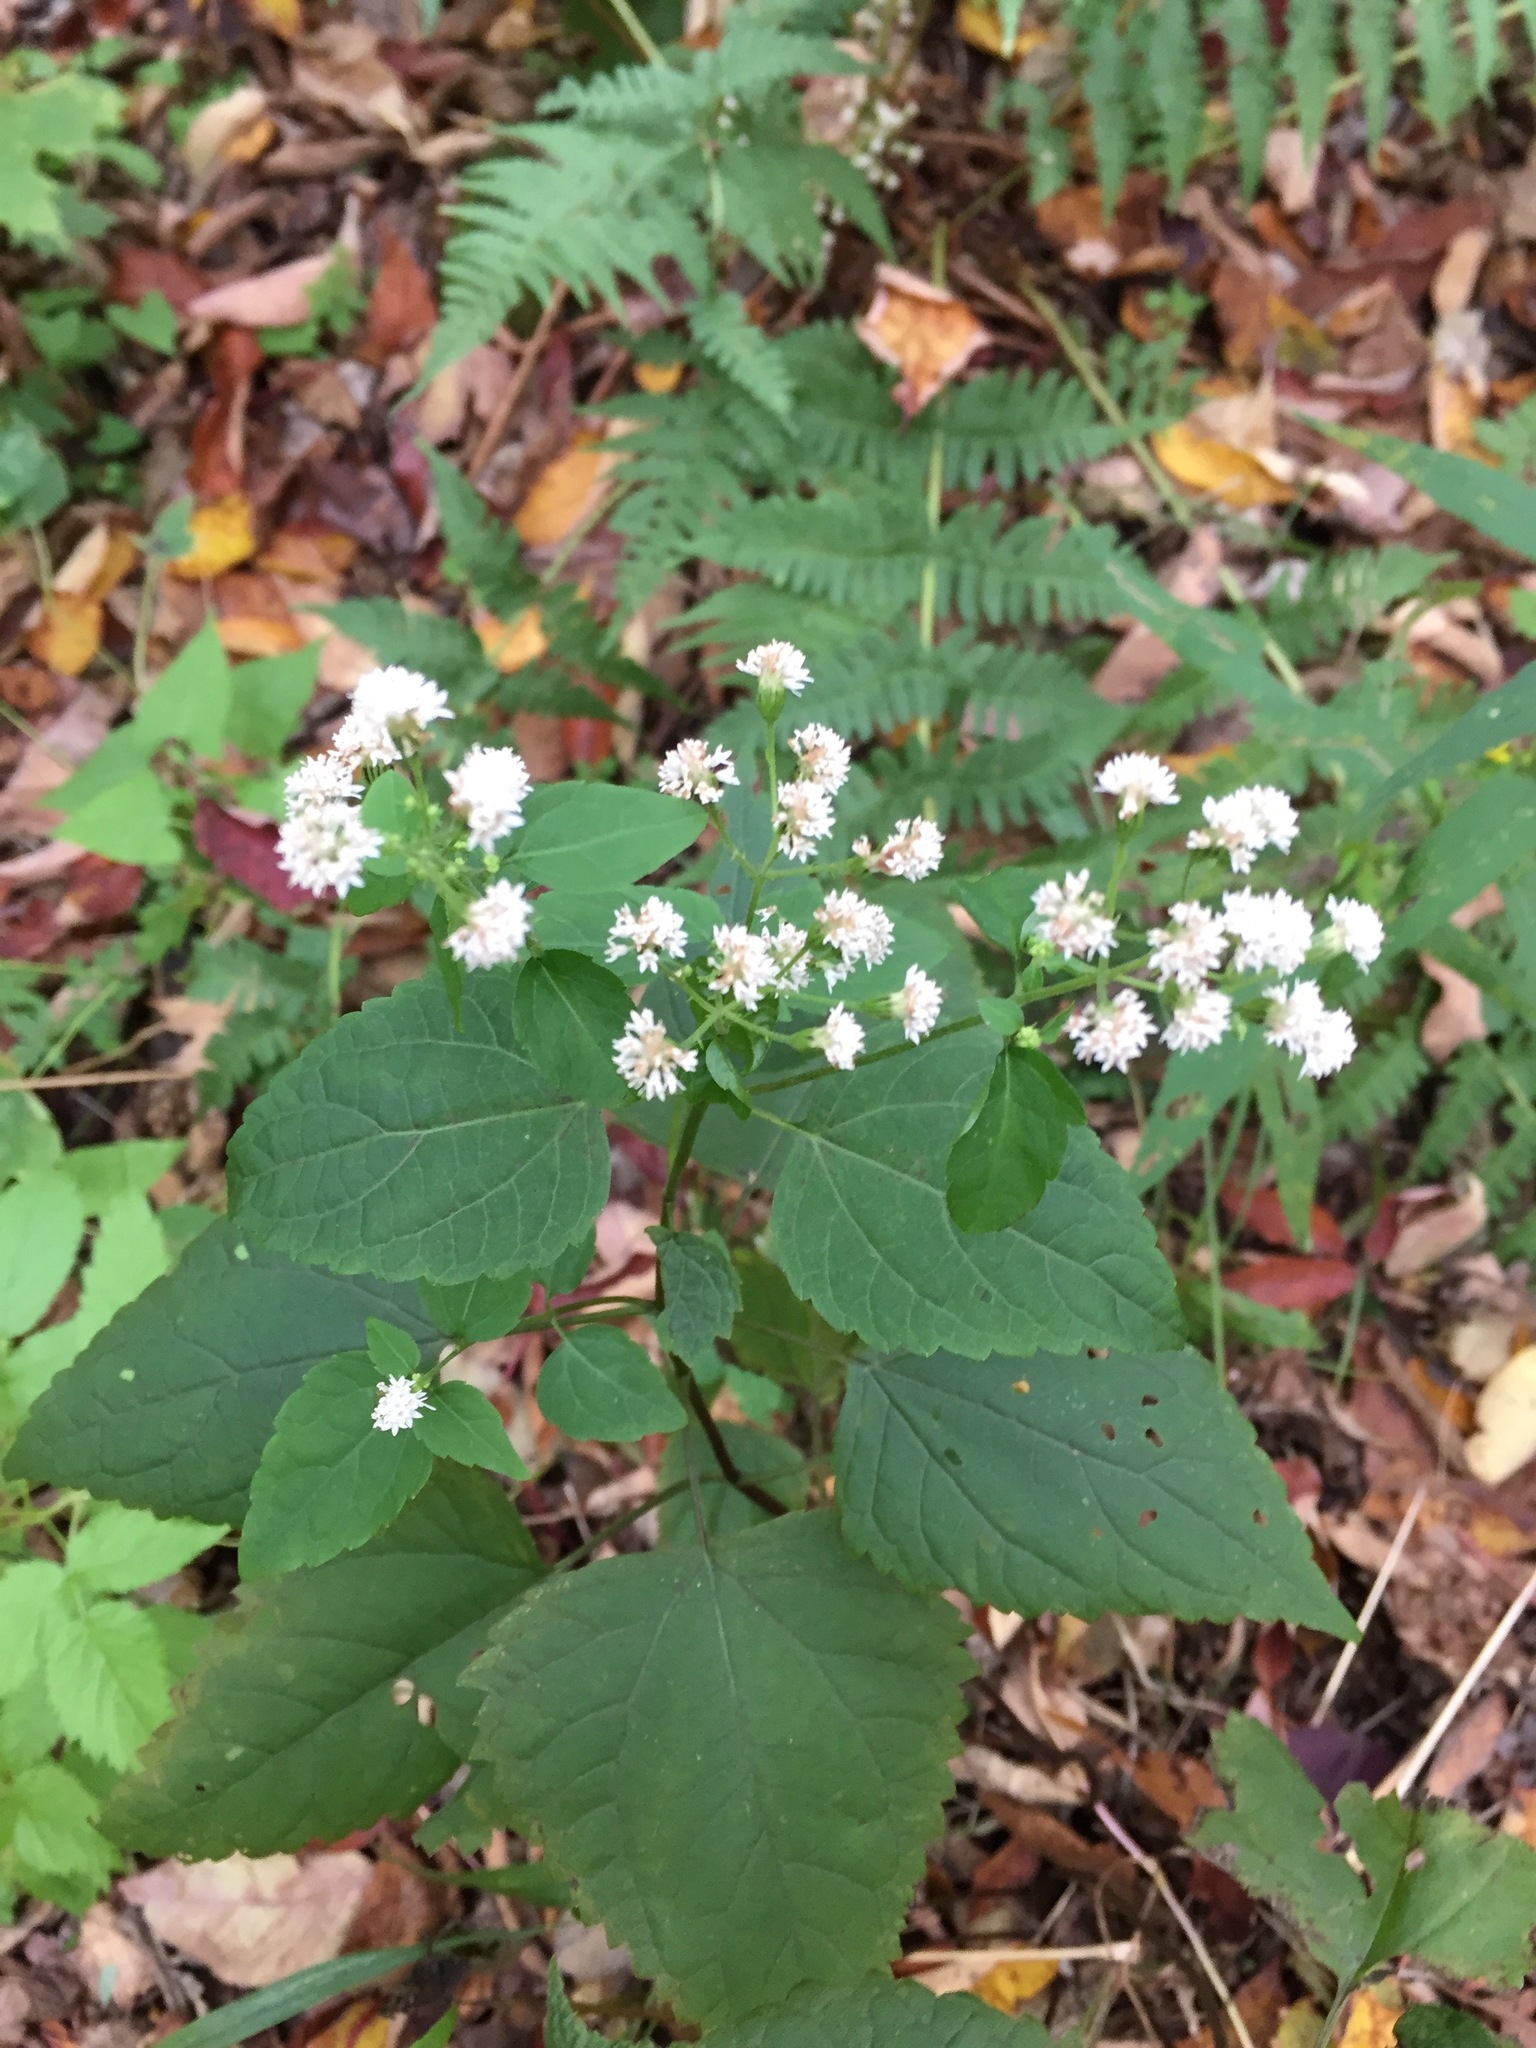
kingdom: Plantae
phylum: Tracheophyta
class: Magnoliopsida
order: Asterales
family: Asteraceae
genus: Ageratina
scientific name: Ageratina altissima
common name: White snakeroot
